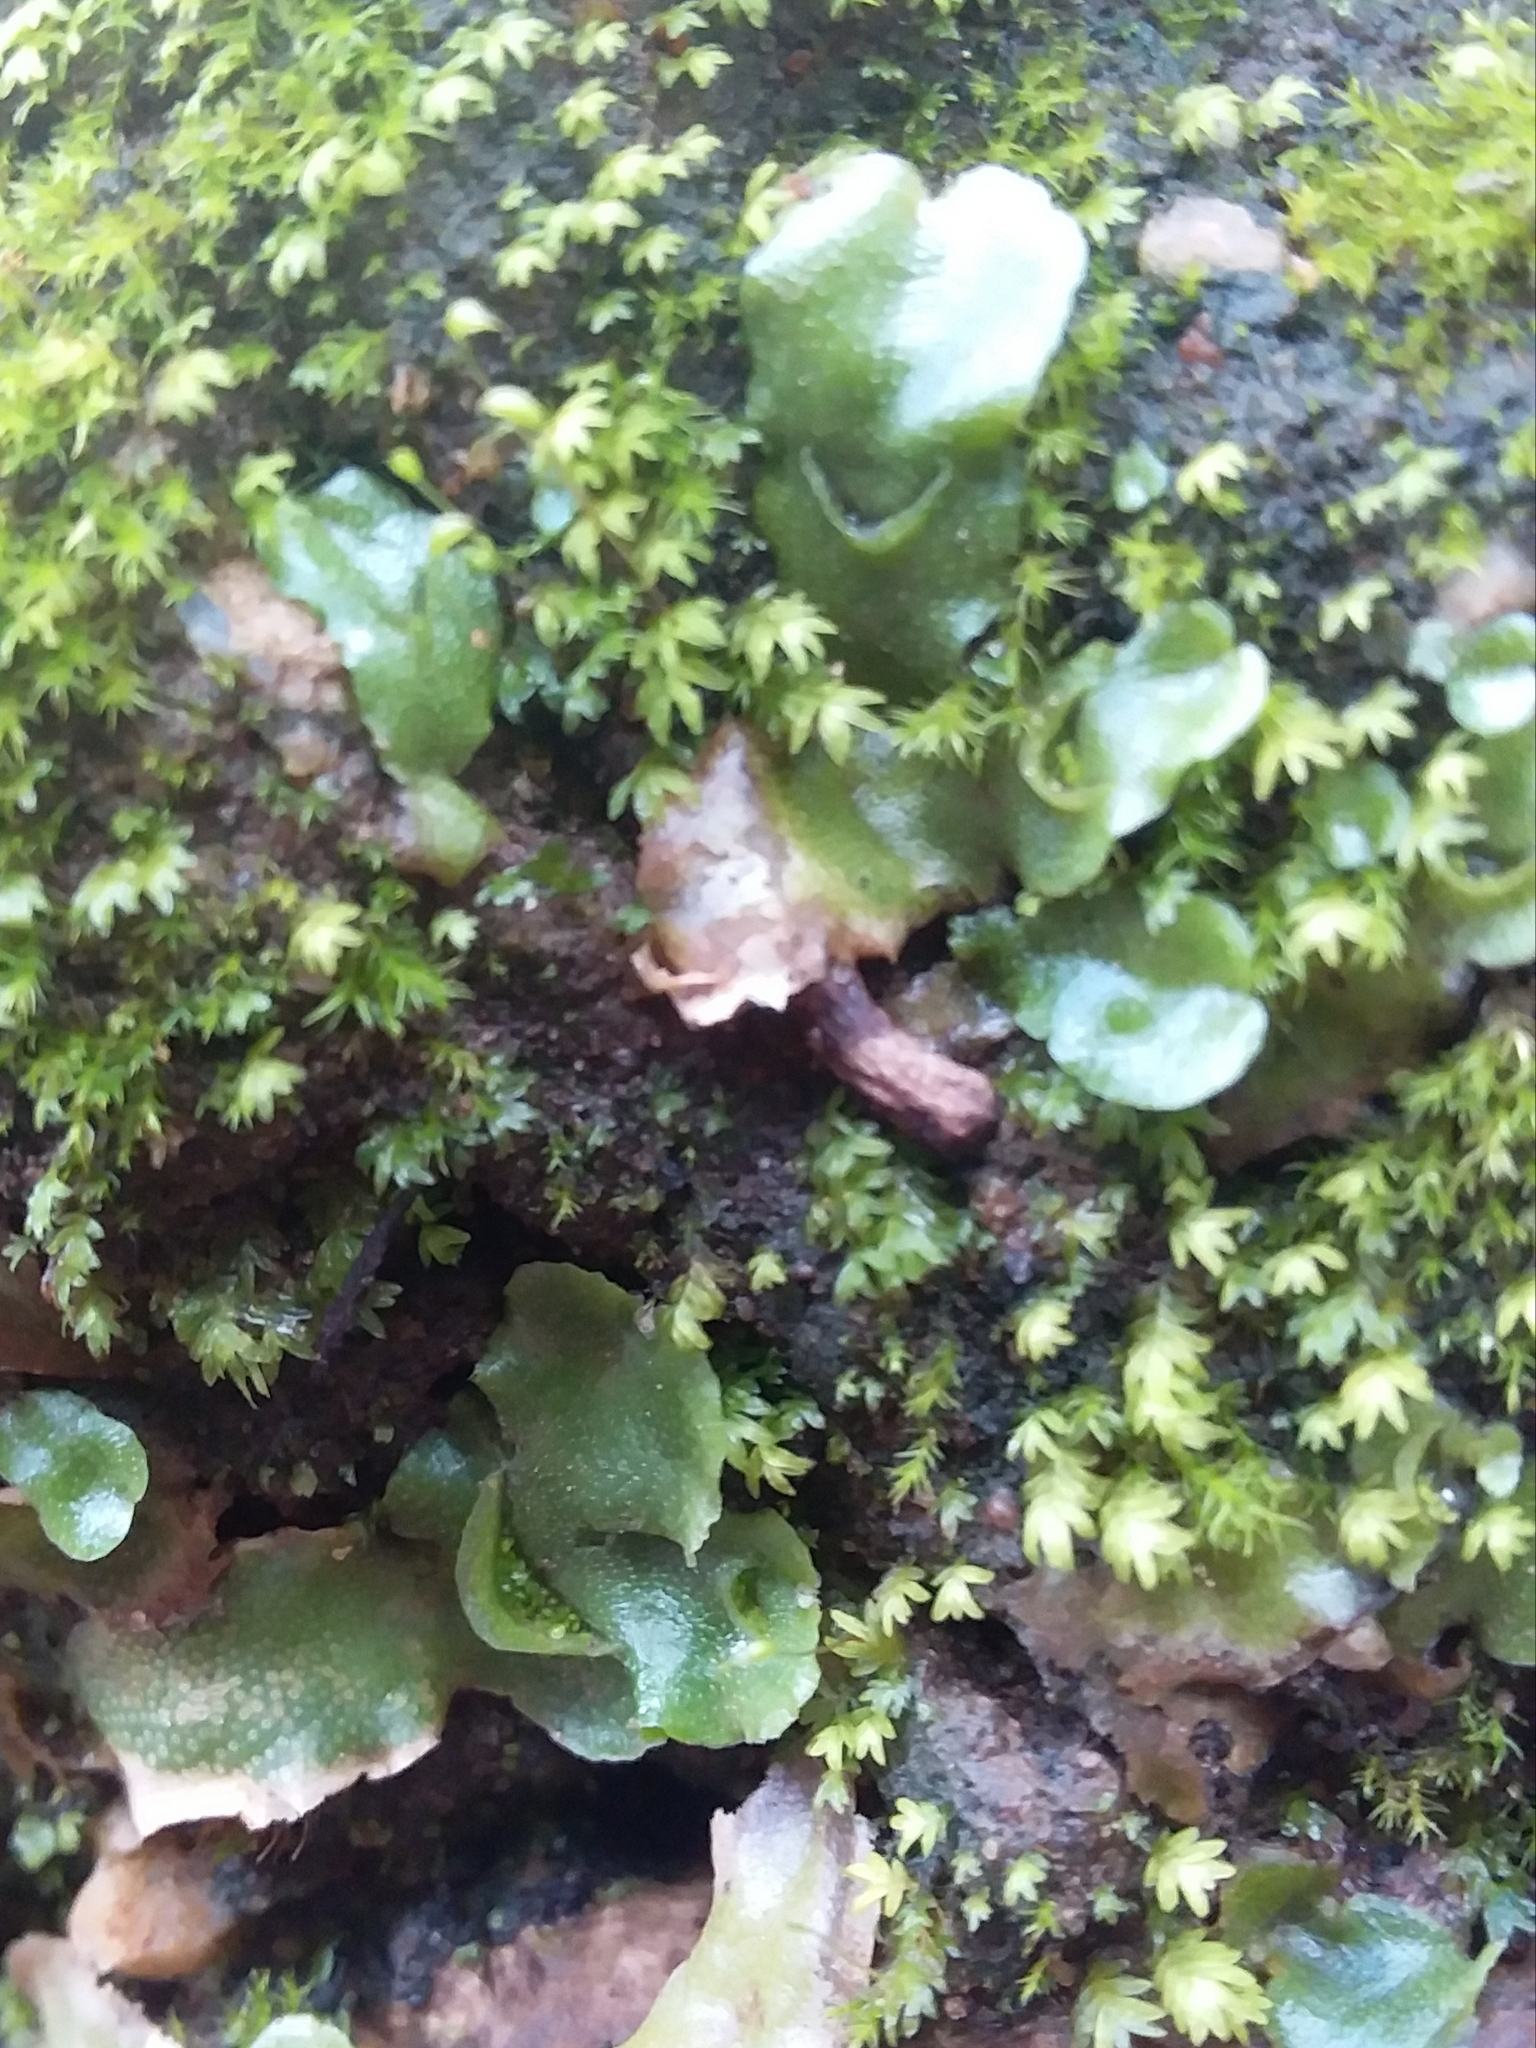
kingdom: Plantae
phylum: Marchantiophyta
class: Marchantiopsida
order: Lunulariales
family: Lunulariaceae
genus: Lunularia
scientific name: Lunularia cruciata
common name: Crescent-cup liverwort
